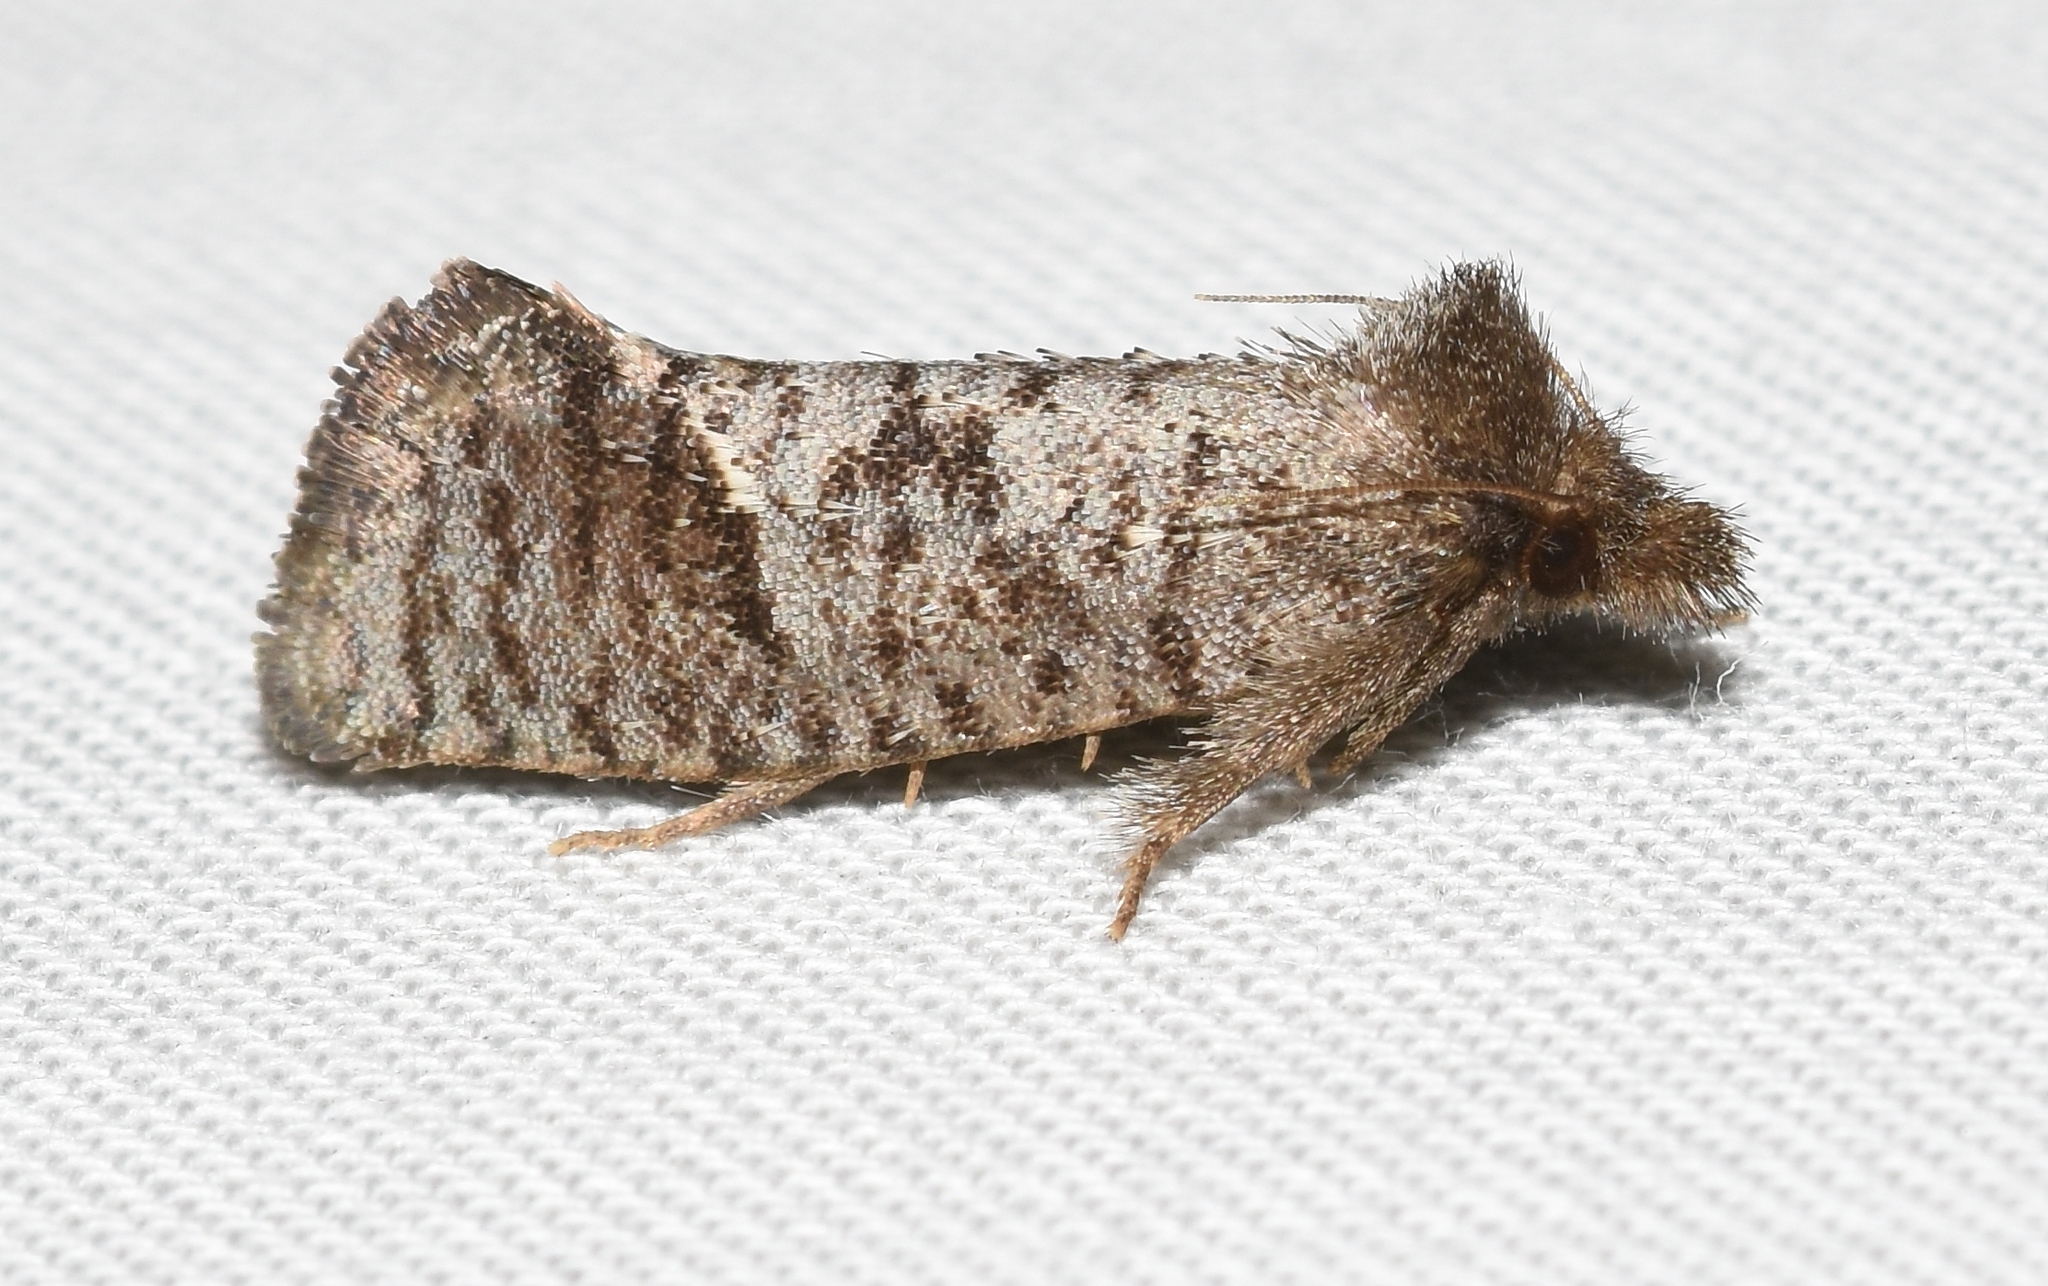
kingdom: Animalia
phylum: Arthropoda
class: Insecta
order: Lepidoptera
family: Tineidae
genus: Acrolophus
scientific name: Acrolophus texanella
